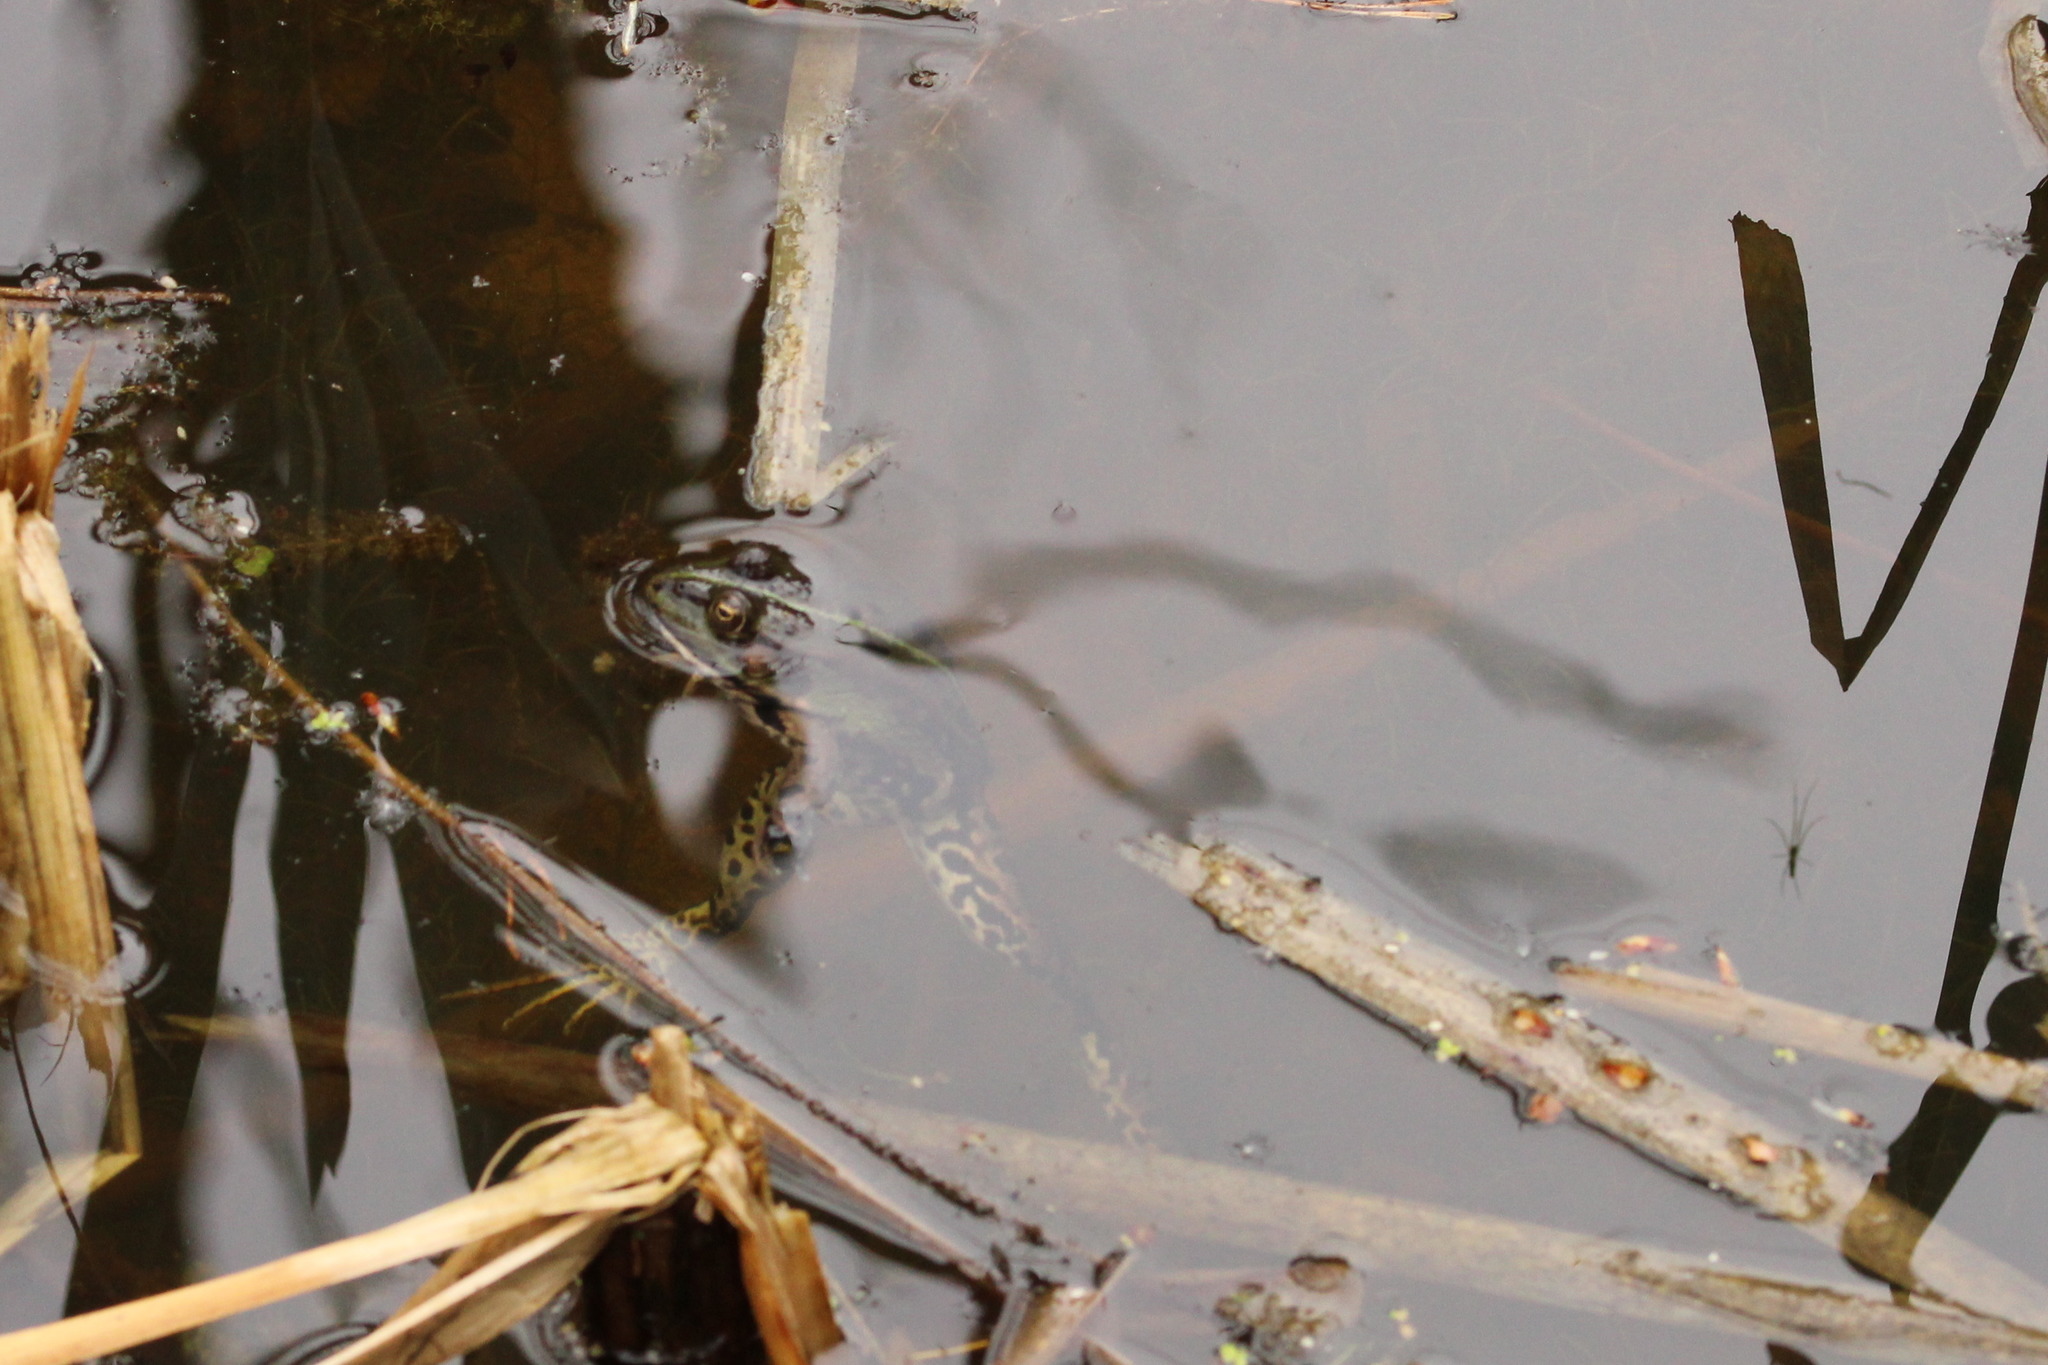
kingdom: Animalia
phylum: Chordata
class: Amphibia
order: Anura
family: Ranidae
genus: Pelophylax
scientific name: Pelophylax
